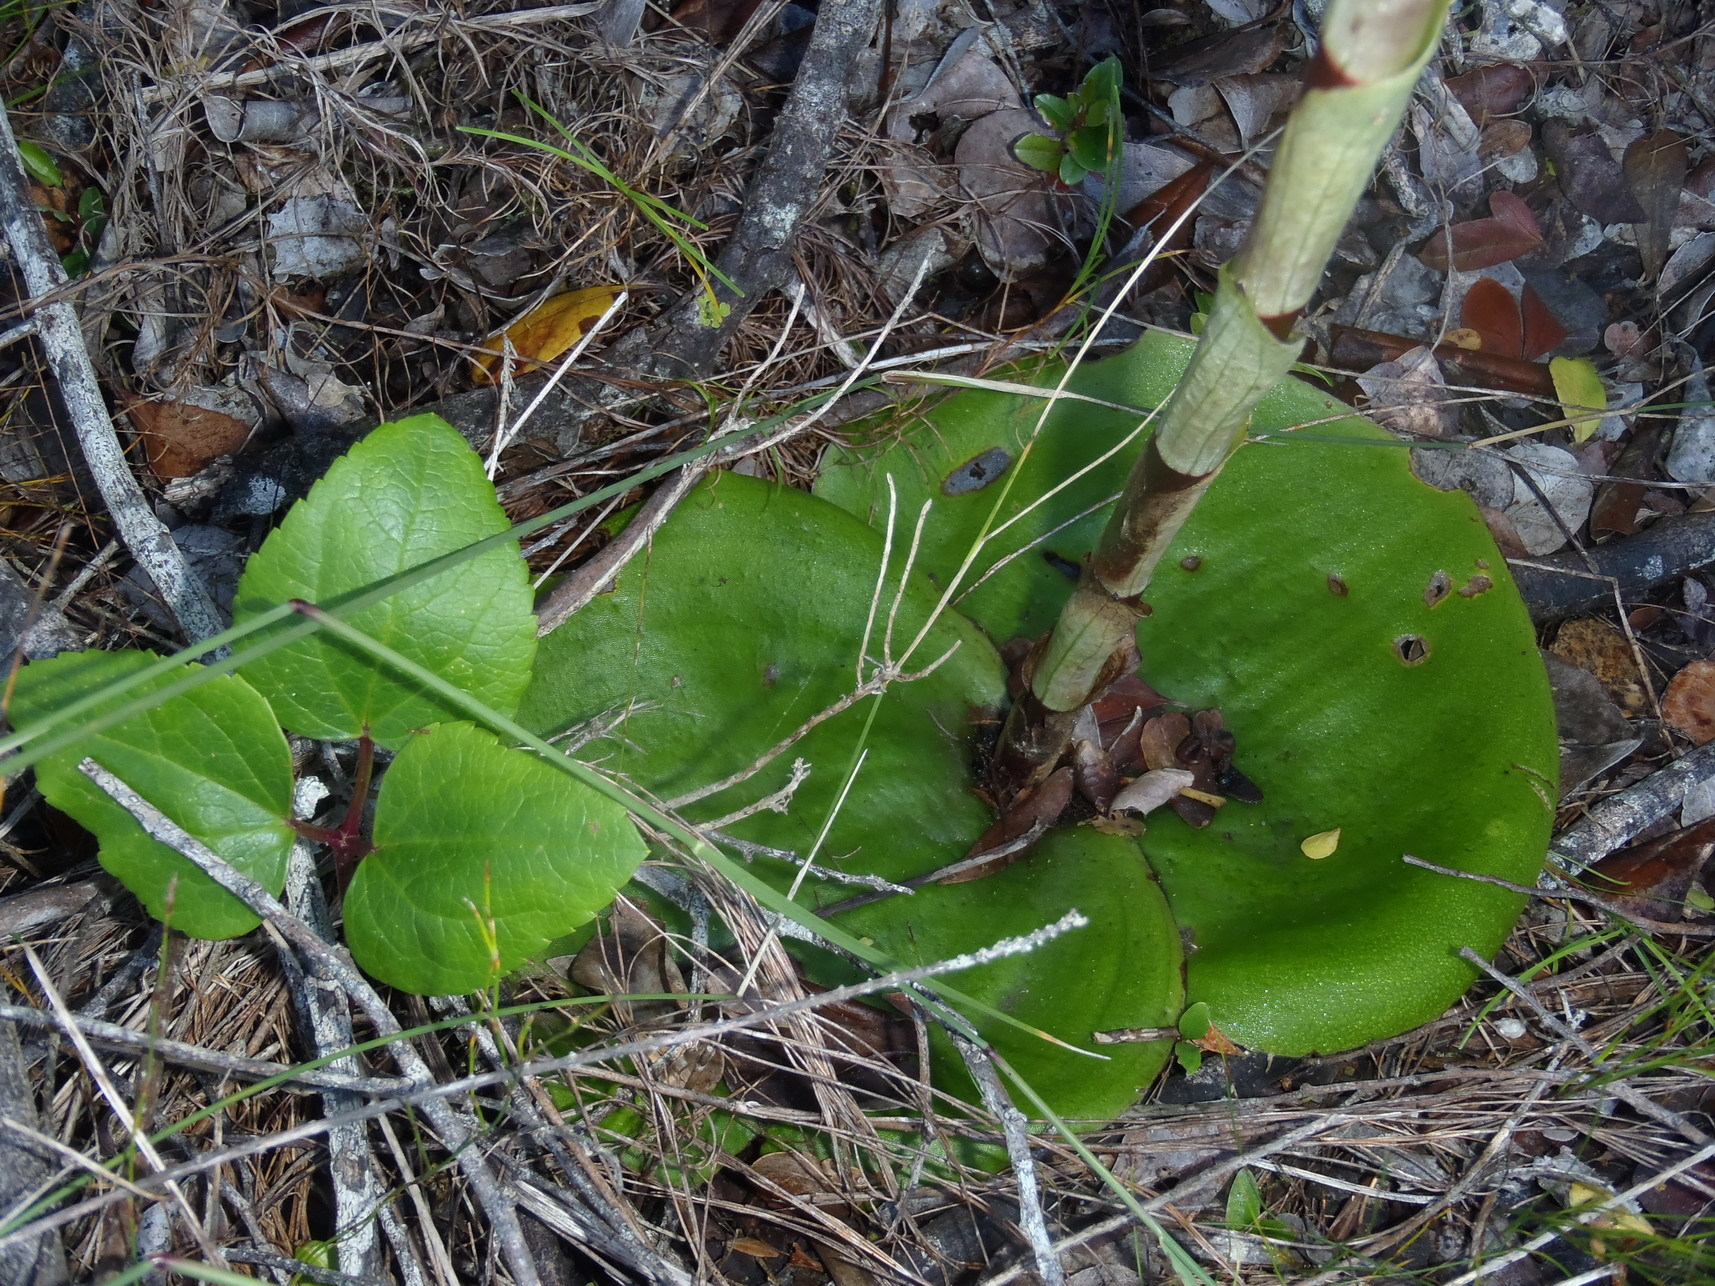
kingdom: Plantae
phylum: Tracheophyta
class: Liliopsida
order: Asparagales
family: Orchidaceae
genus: Satyrium
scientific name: Satyrium princeps
